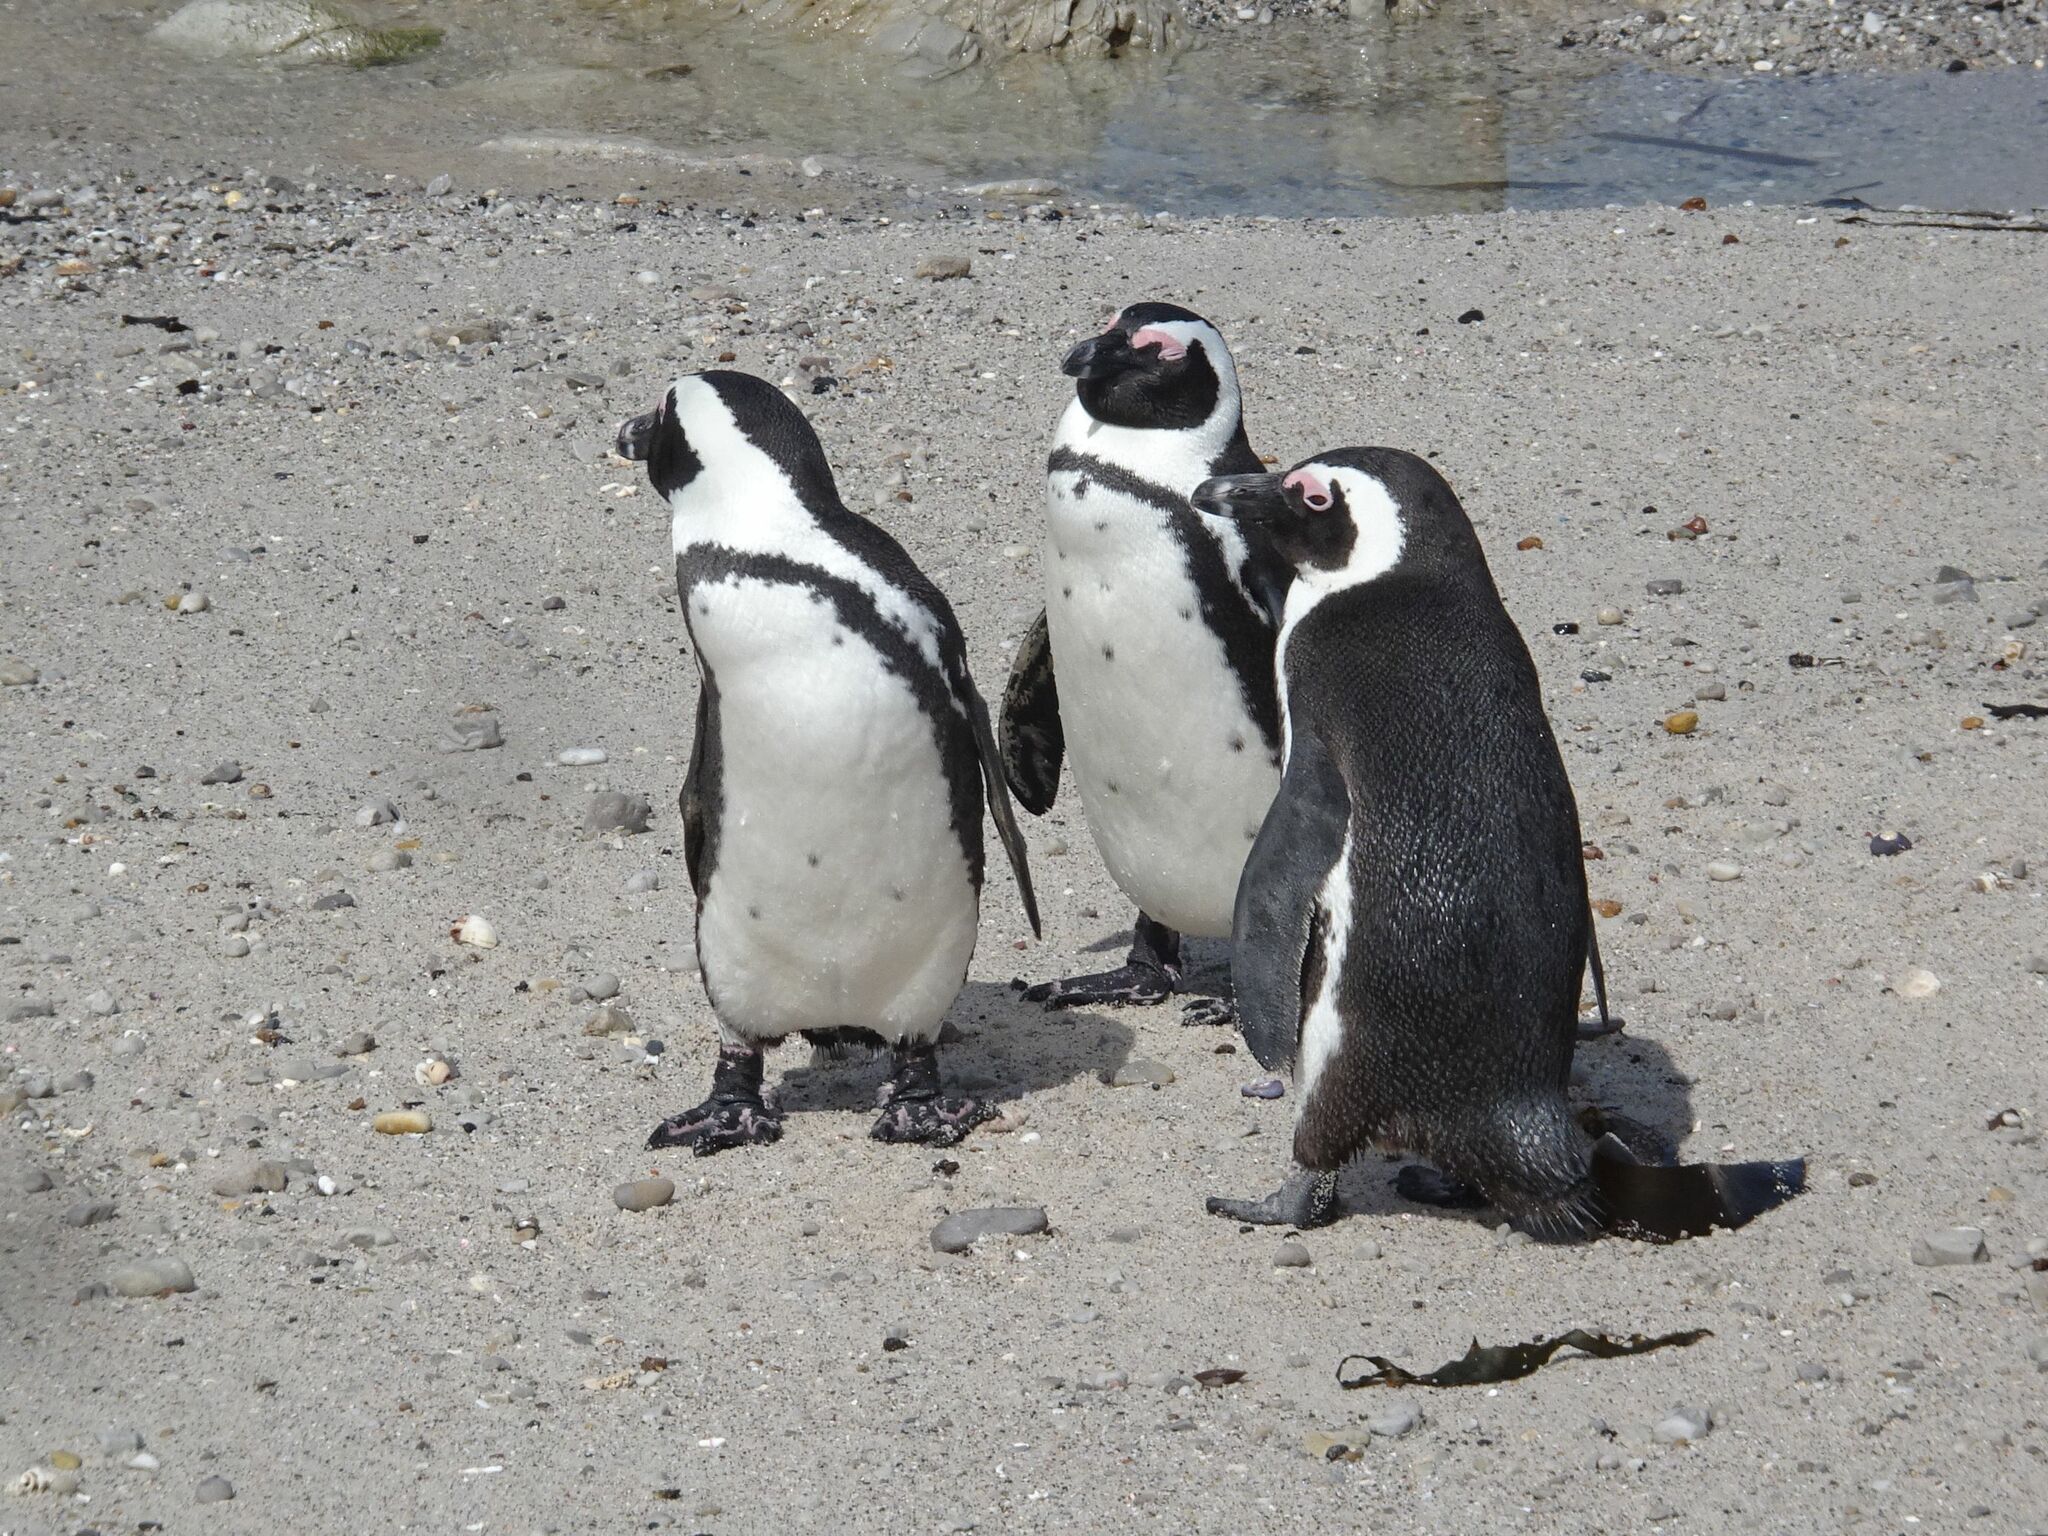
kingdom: Animalia
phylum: Chordata
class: Aves
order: Sphenisciformes
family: Spheniscidae
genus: Spheniscus
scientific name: Spheniscus demersus
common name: African penguin
